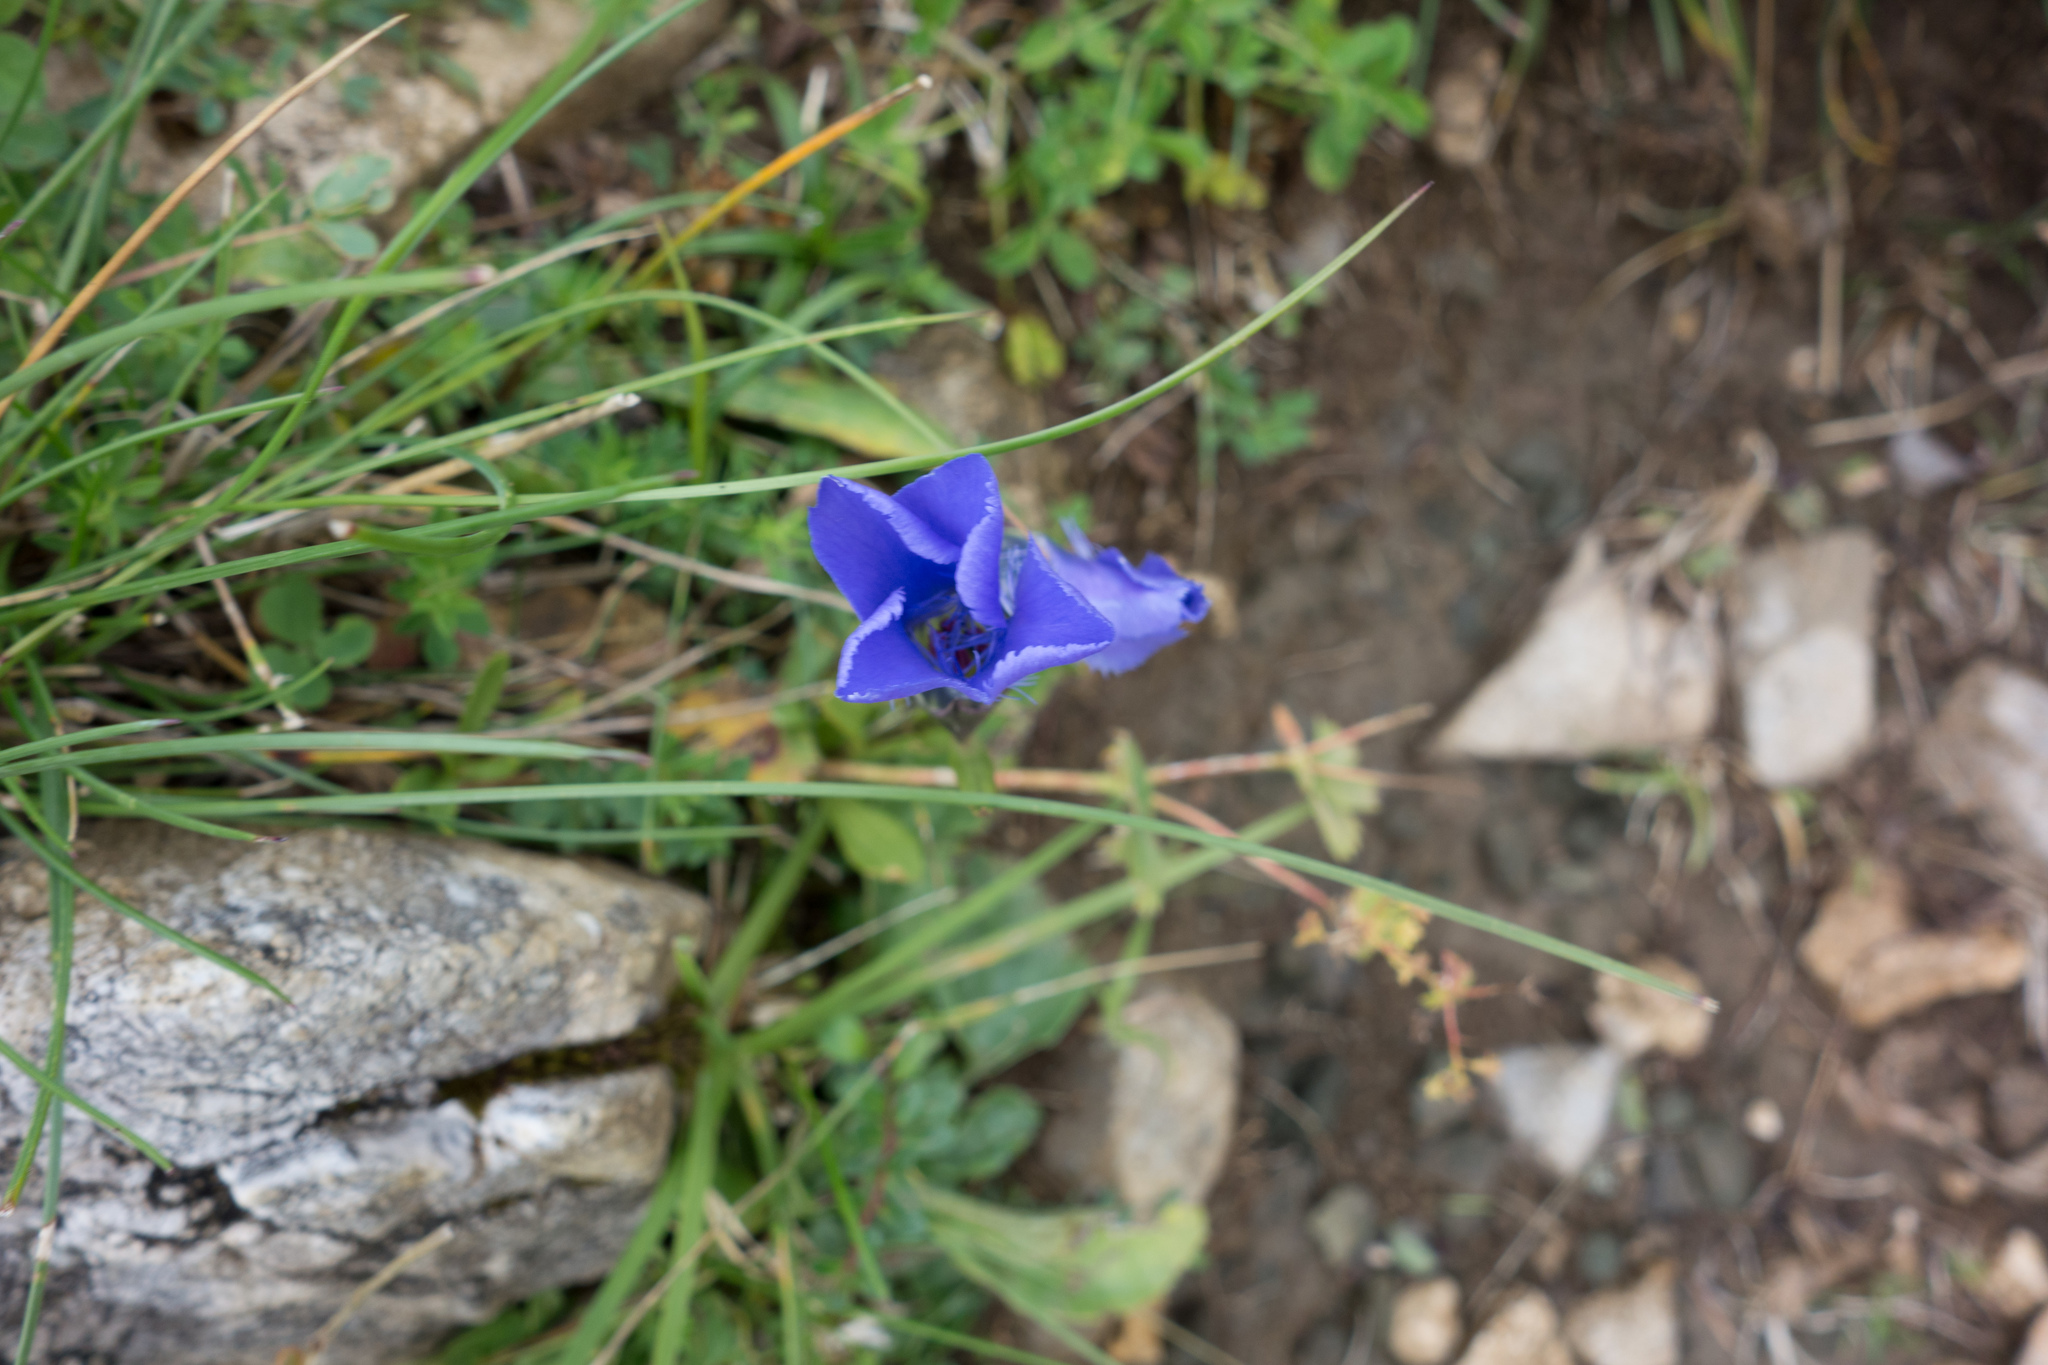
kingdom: Plantae
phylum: Tracheophyta
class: Magnoliopsida
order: Gentianales
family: Gentianaceae
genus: Gentianopsis
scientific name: Gentianopsis ciliata
